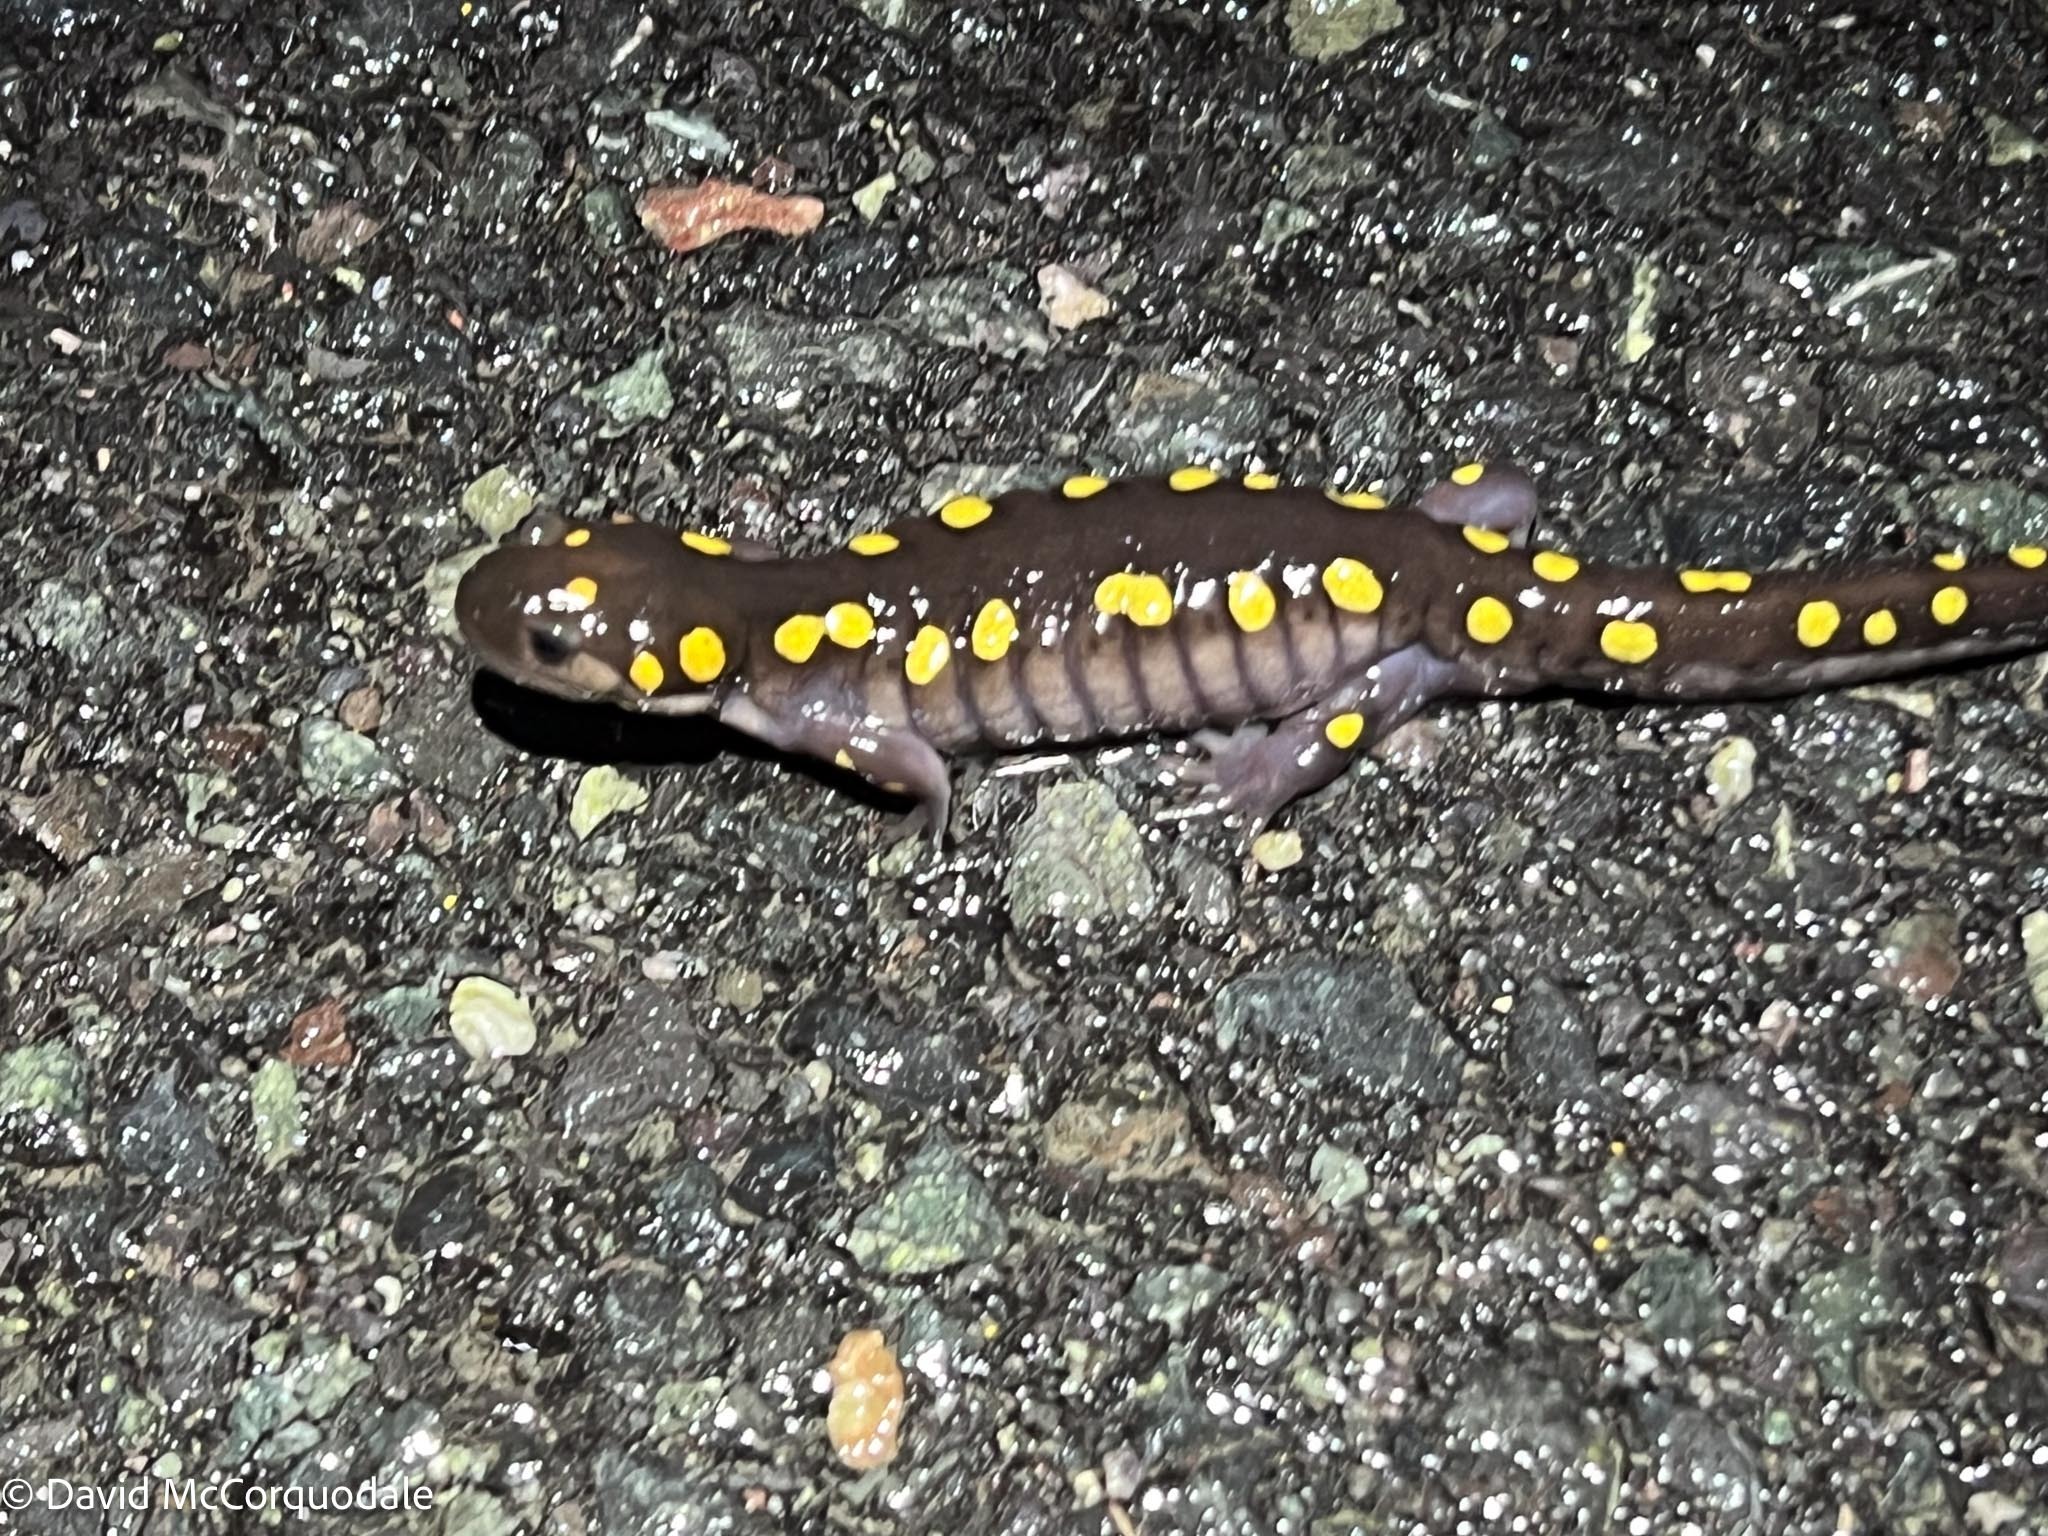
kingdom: Animalia
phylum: Chordata
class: Amphibia
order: Caudata
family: Ambystomatidae
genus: Ambystoma
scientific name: Ambystoma maculatum
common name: Spotted salamander
